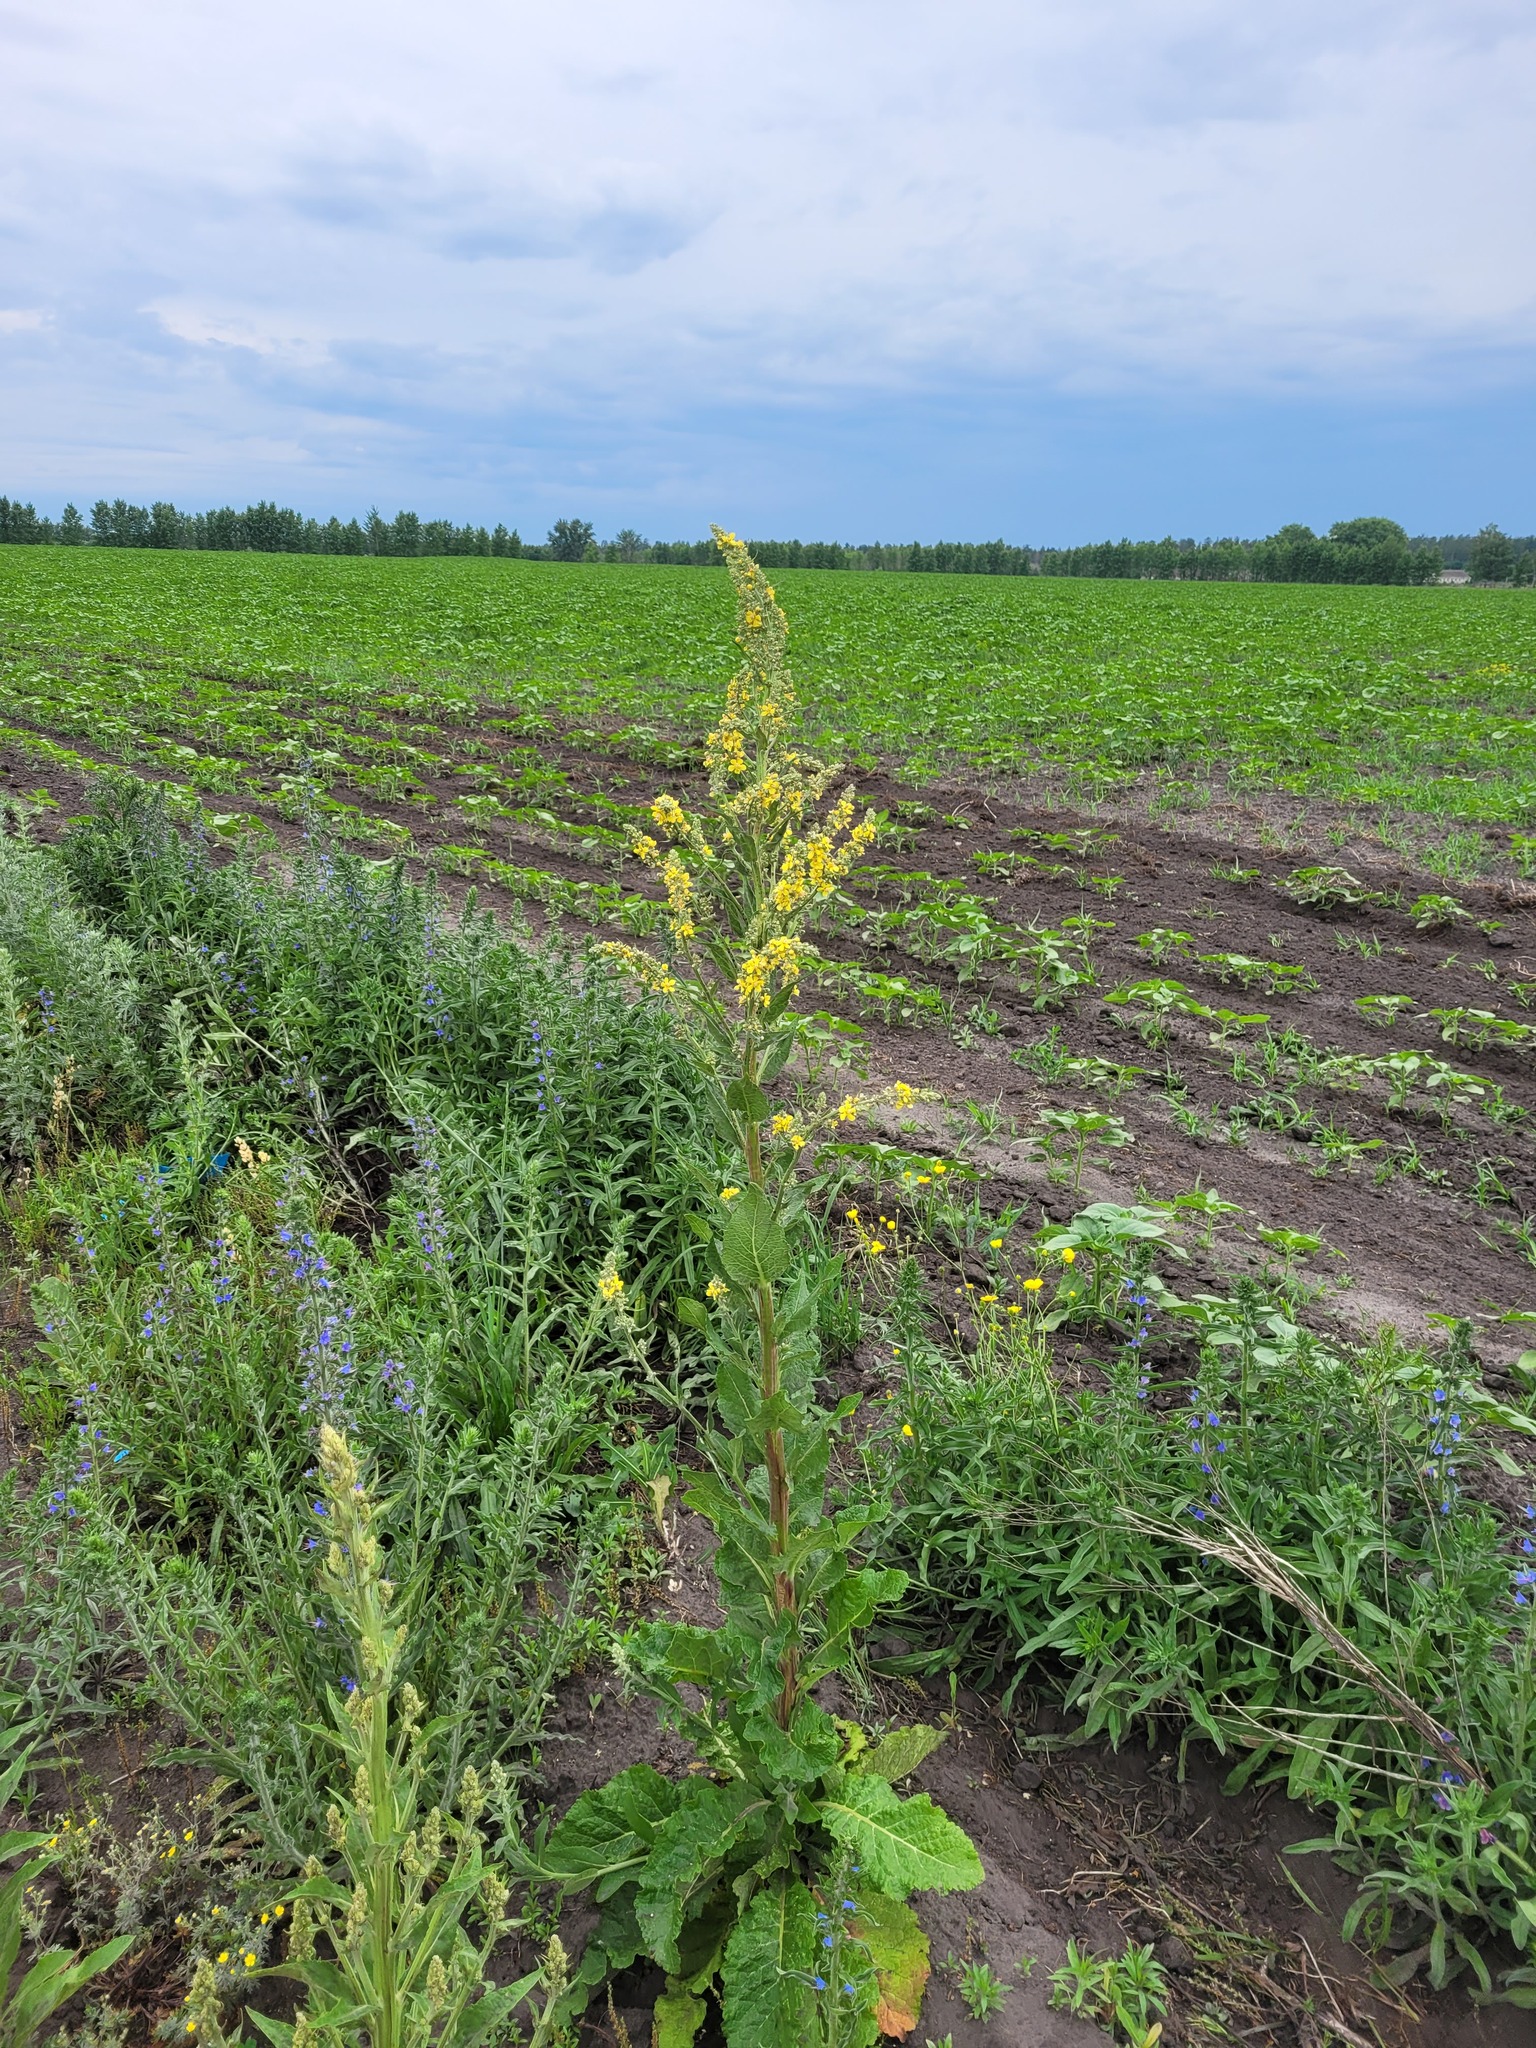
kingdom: Plantae
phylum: Tracheophyta
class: Magnoliopsida
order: Lamiales
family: Scrophulariaceae
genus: Verbascum
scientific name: Verbascum lychnitis
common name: White mullein
